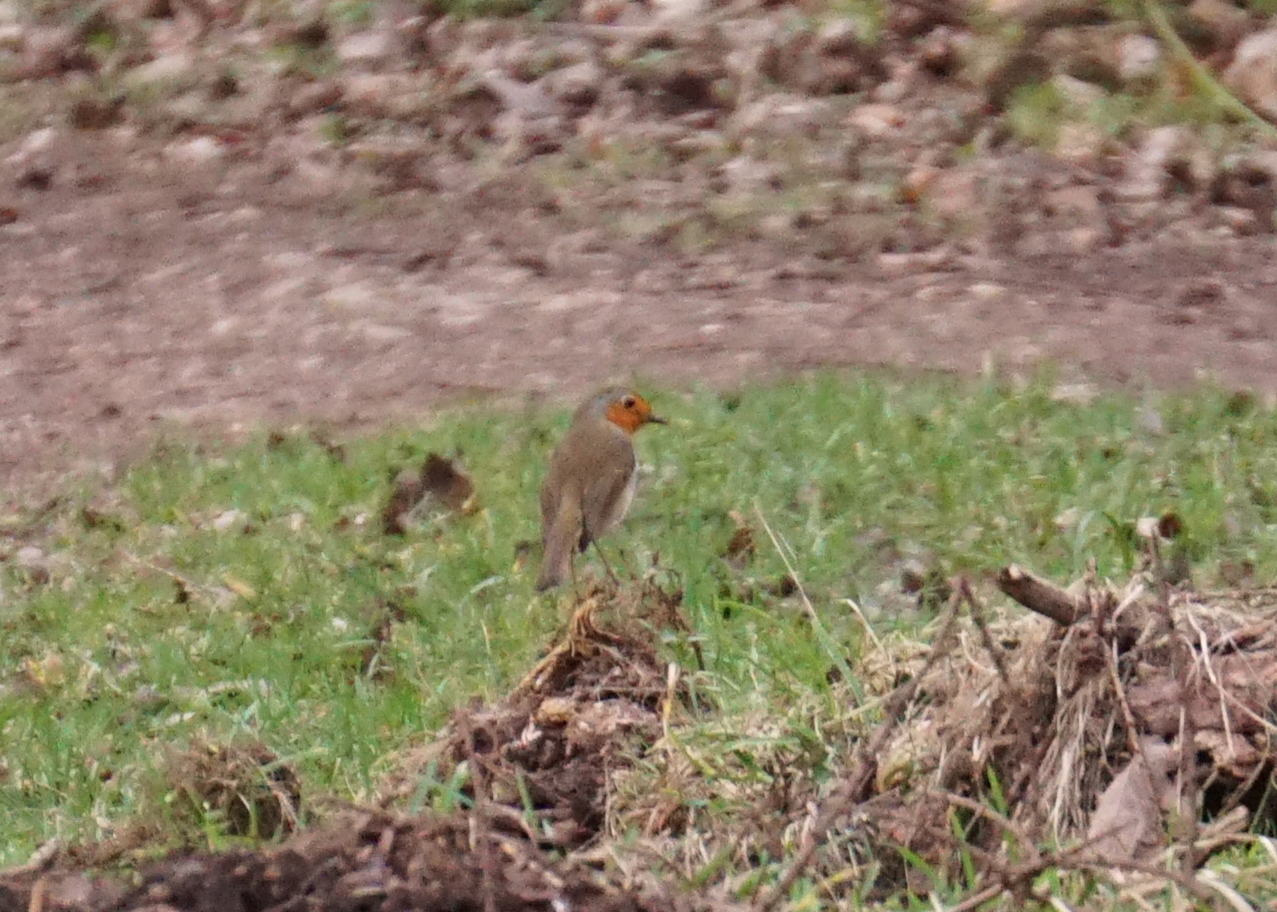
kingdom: Animalia
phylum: Chordata
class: Aves
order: Passeriformes
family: Muscicapidae
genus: Erithacus
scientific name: Erithacus rubecula
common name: European robin
